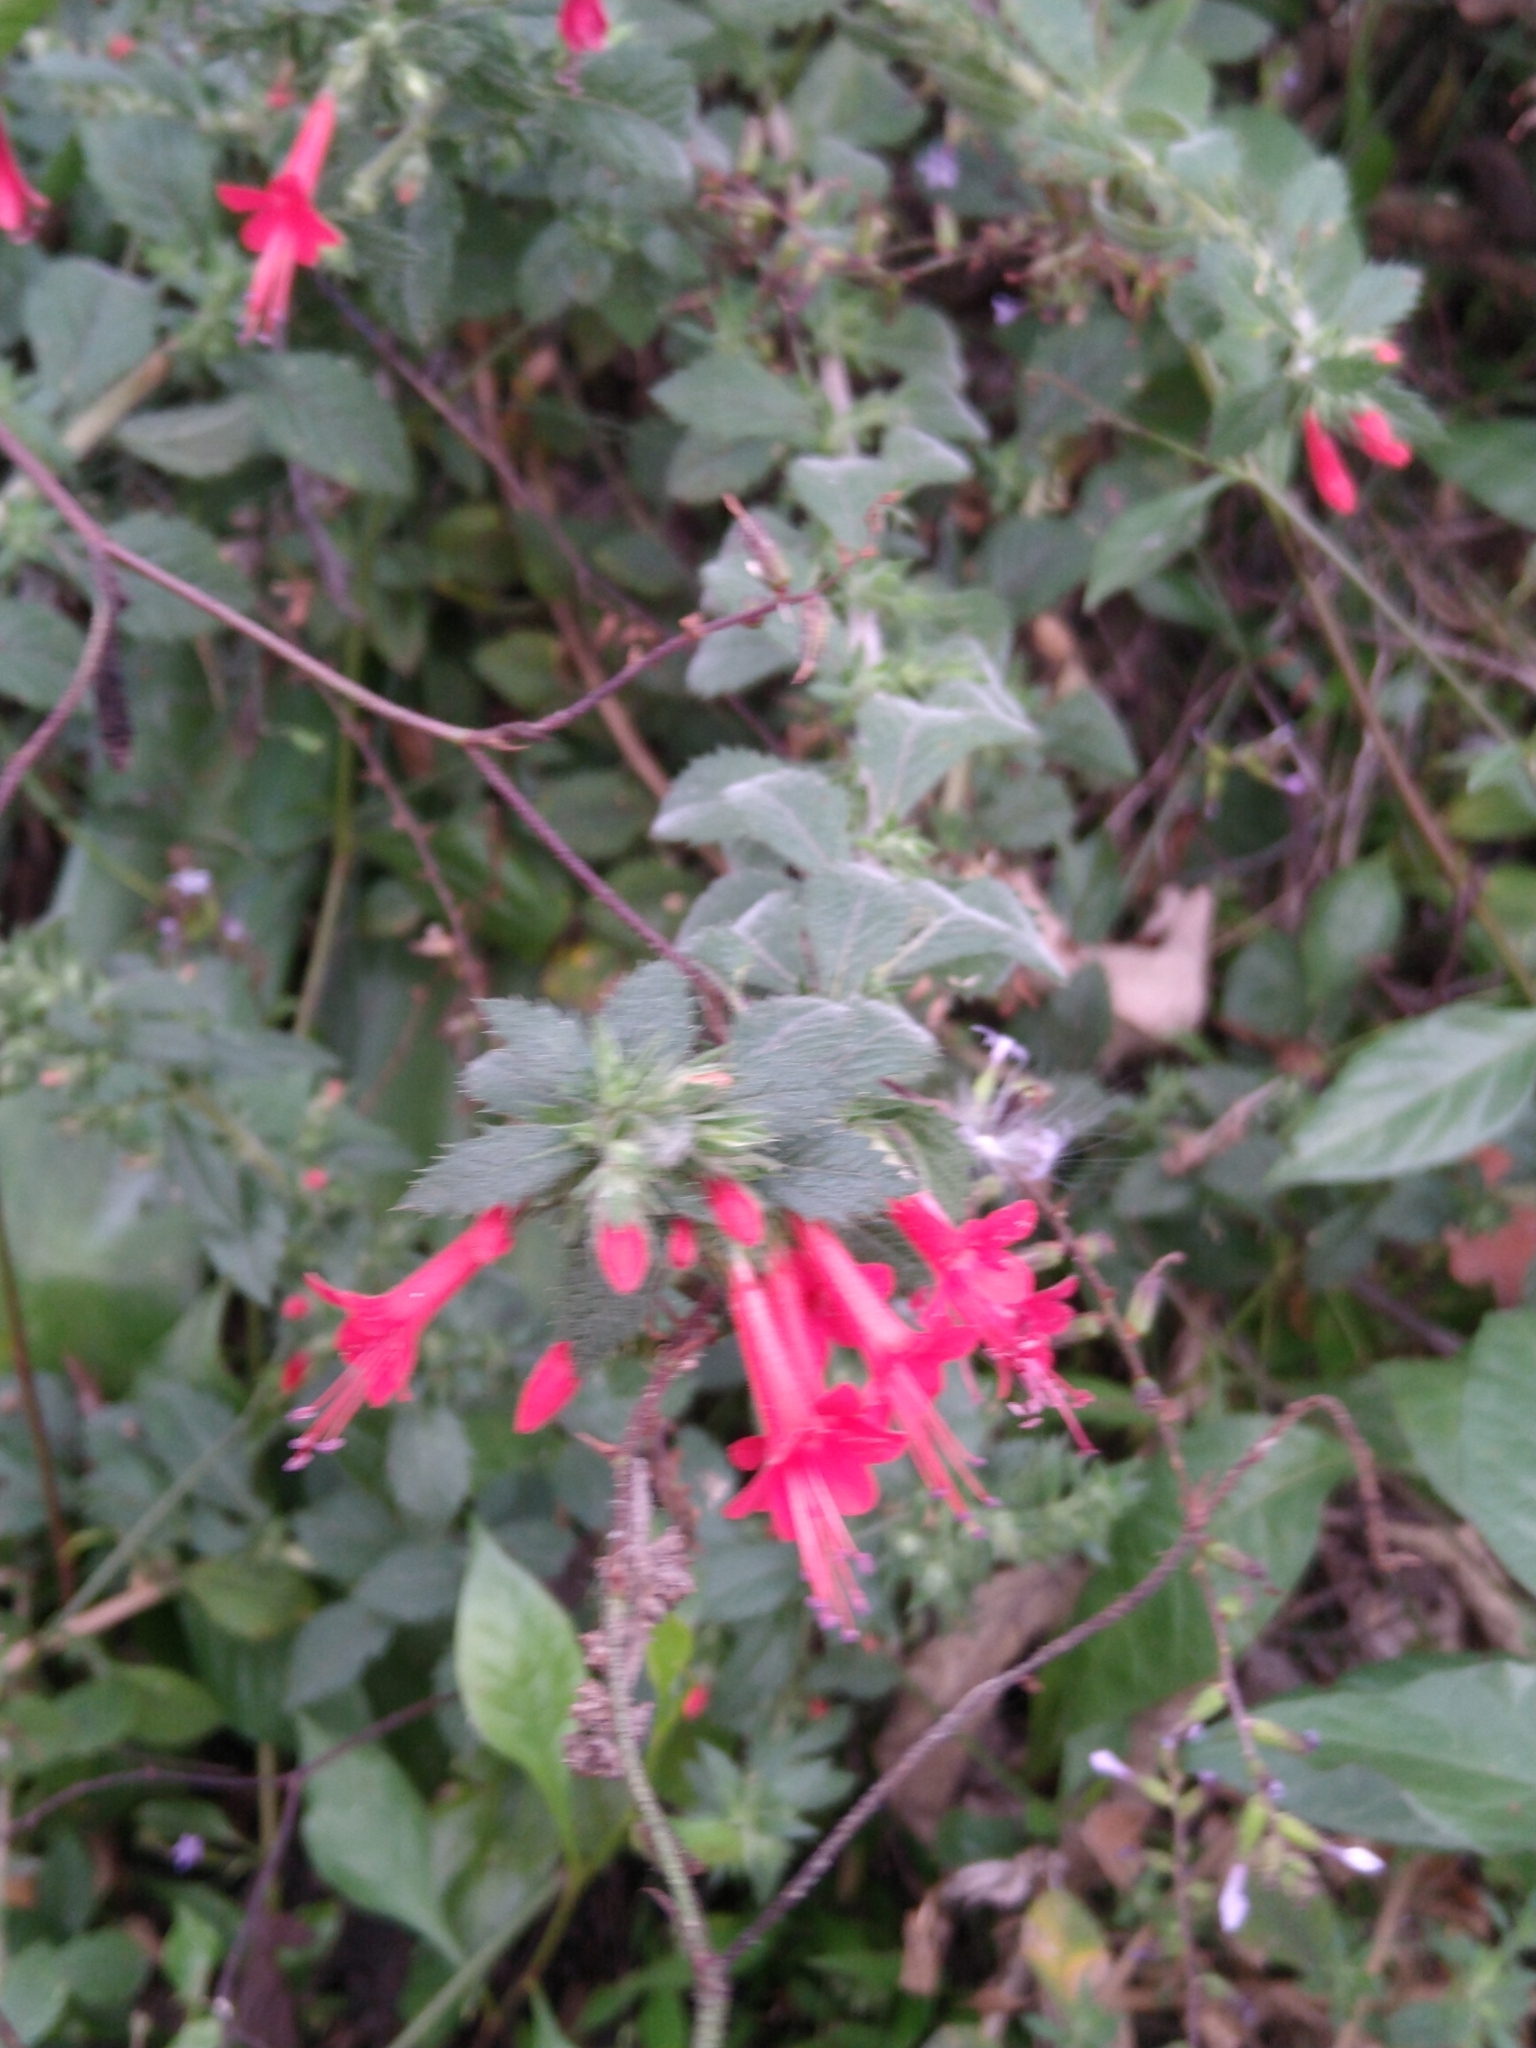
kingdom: Plantae
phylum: Tracheophyta
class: Magnoliopsida
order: Ericales
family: Polemoniaceae
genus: Loeselia
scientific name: Loeselia mexicana
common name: Mexican false calico
